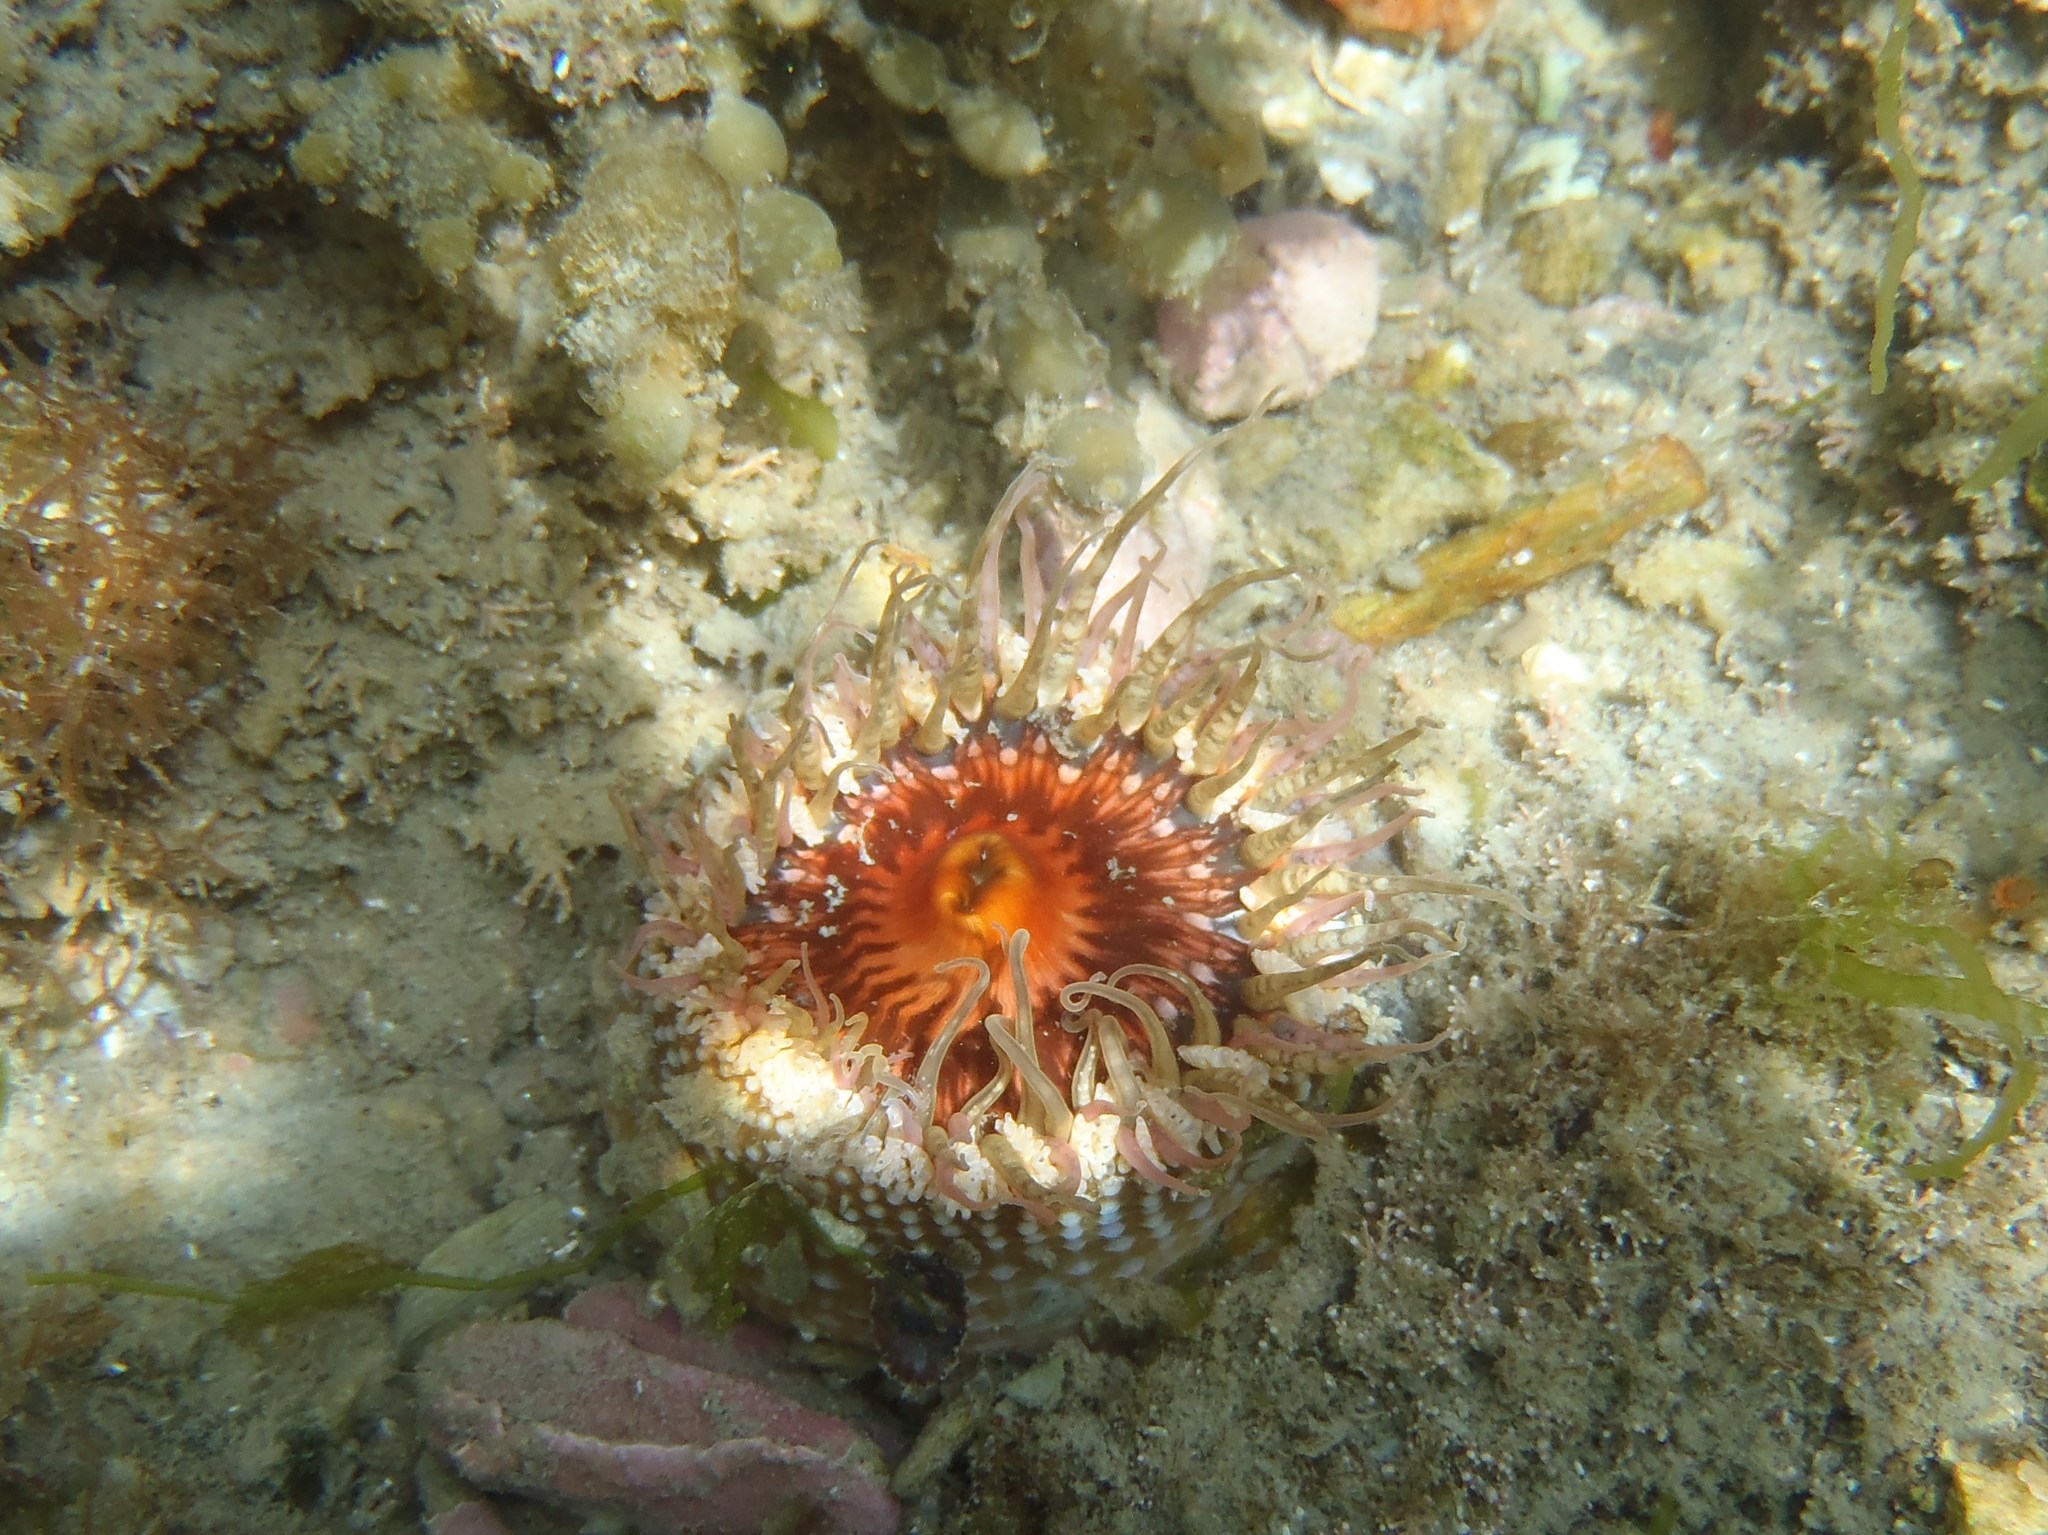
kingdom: Animalia
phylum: Cnidaria
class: Anthozoa
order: Actiniaria
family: Actiniidae
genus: Oulactis
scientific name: Oulactis muscosa
